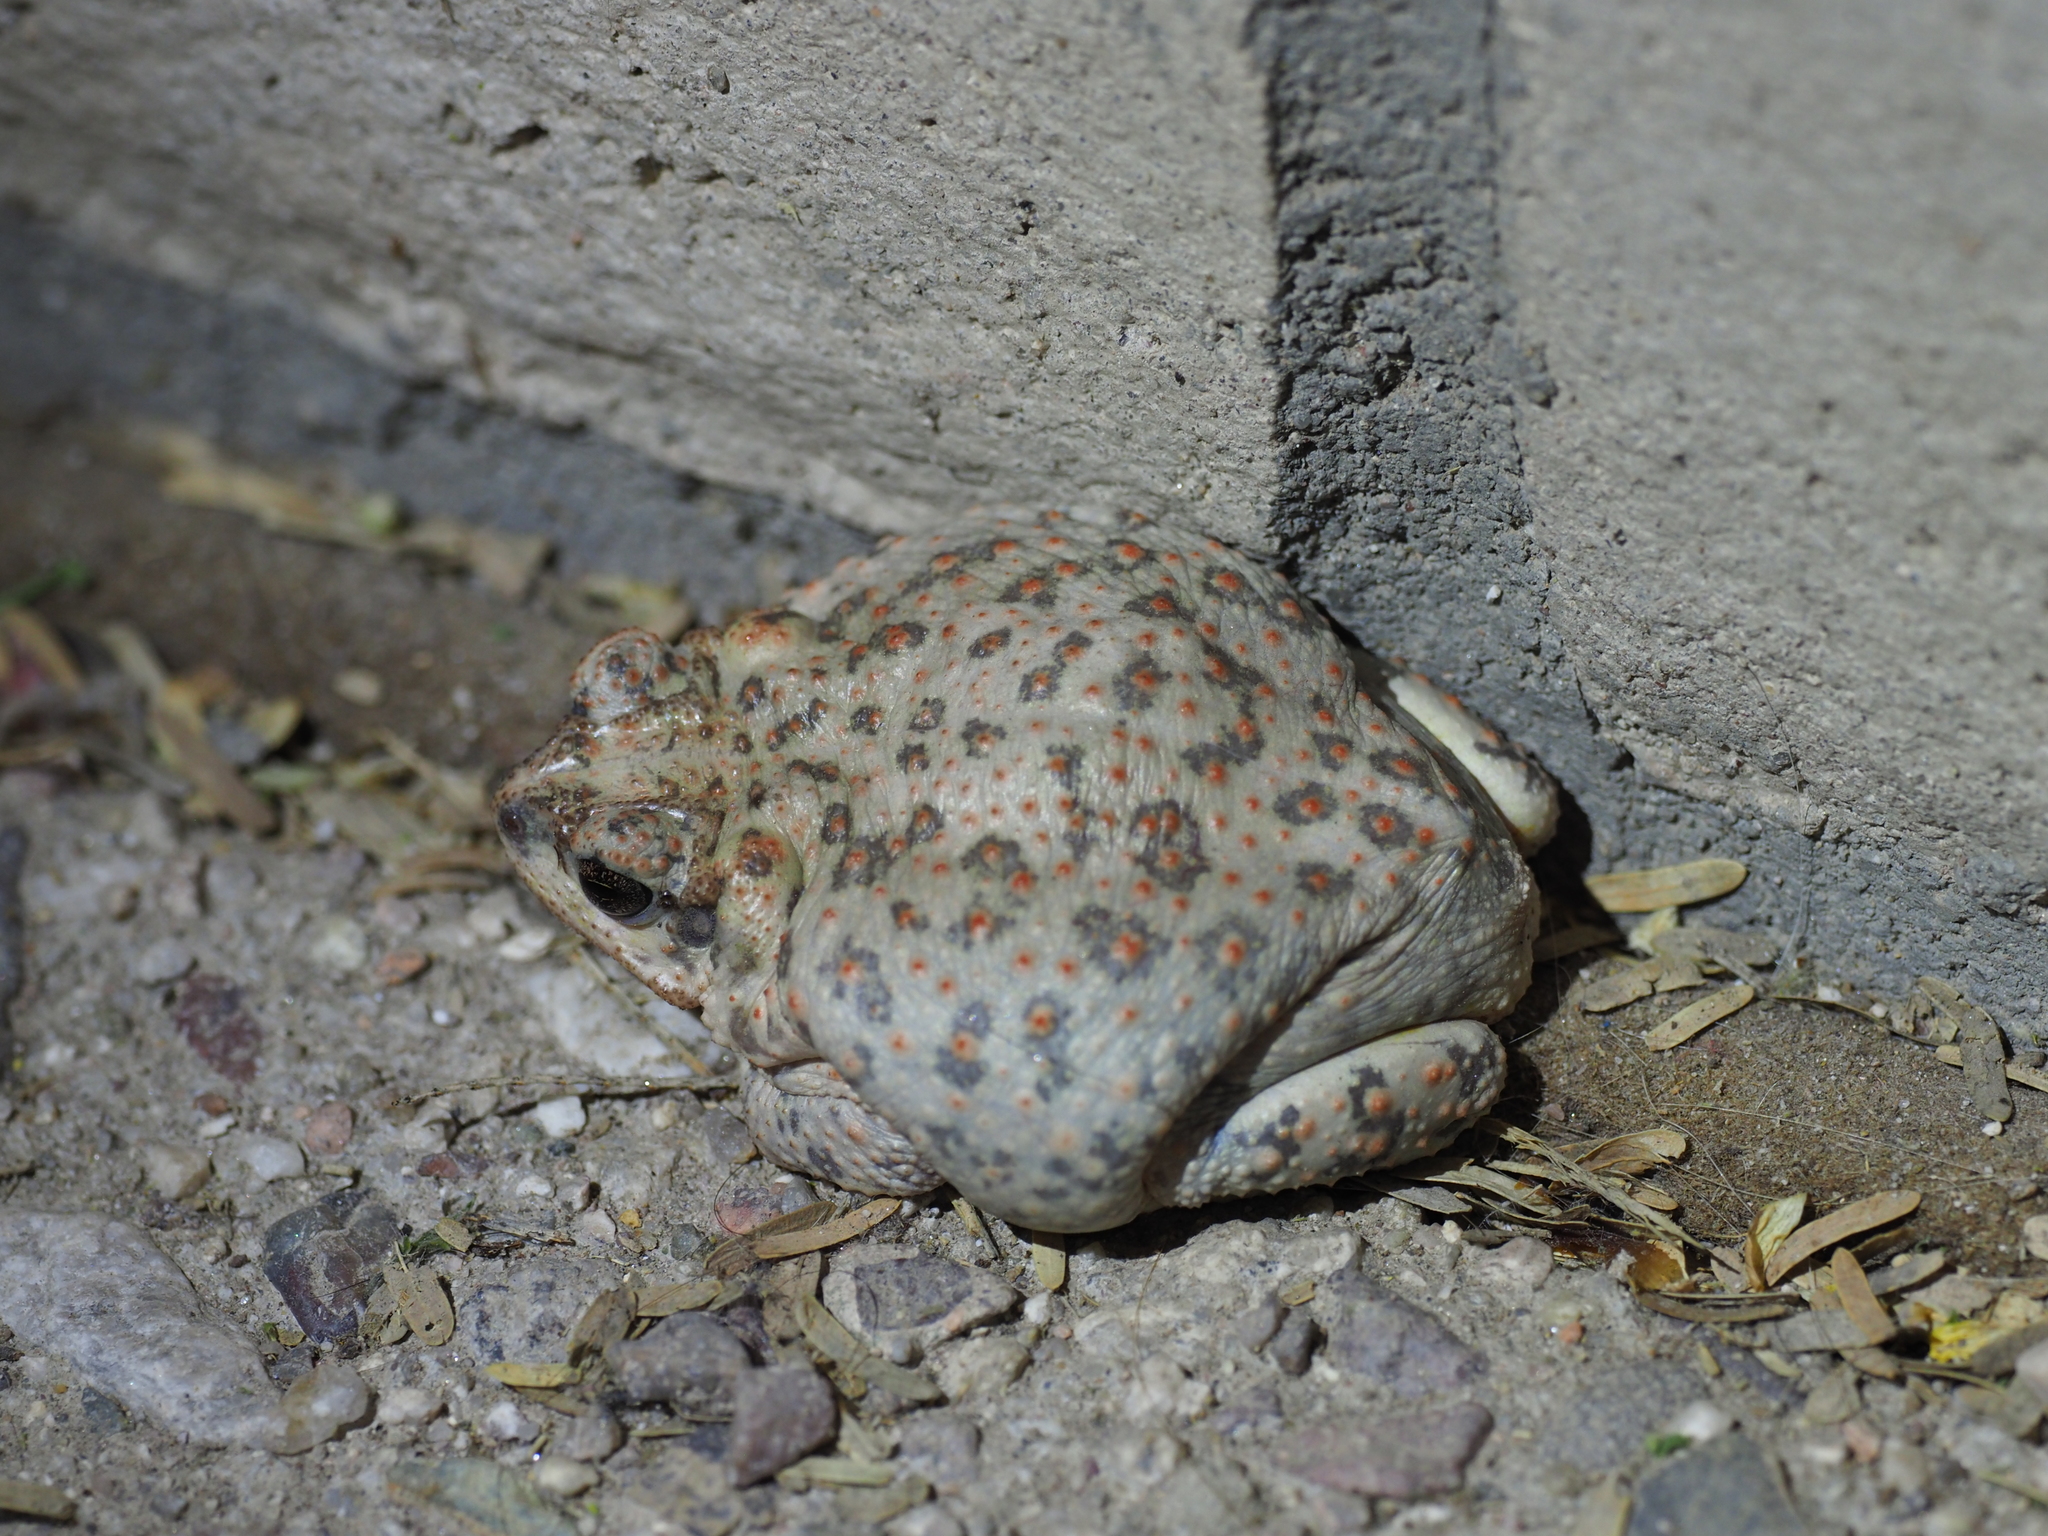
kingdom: Animalia
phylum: Chordata
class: Amphibia
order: Anura
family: Bufonidae
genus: Anaxyrus
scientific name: Anaxyrus punctatus
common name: Red-spotted toad
